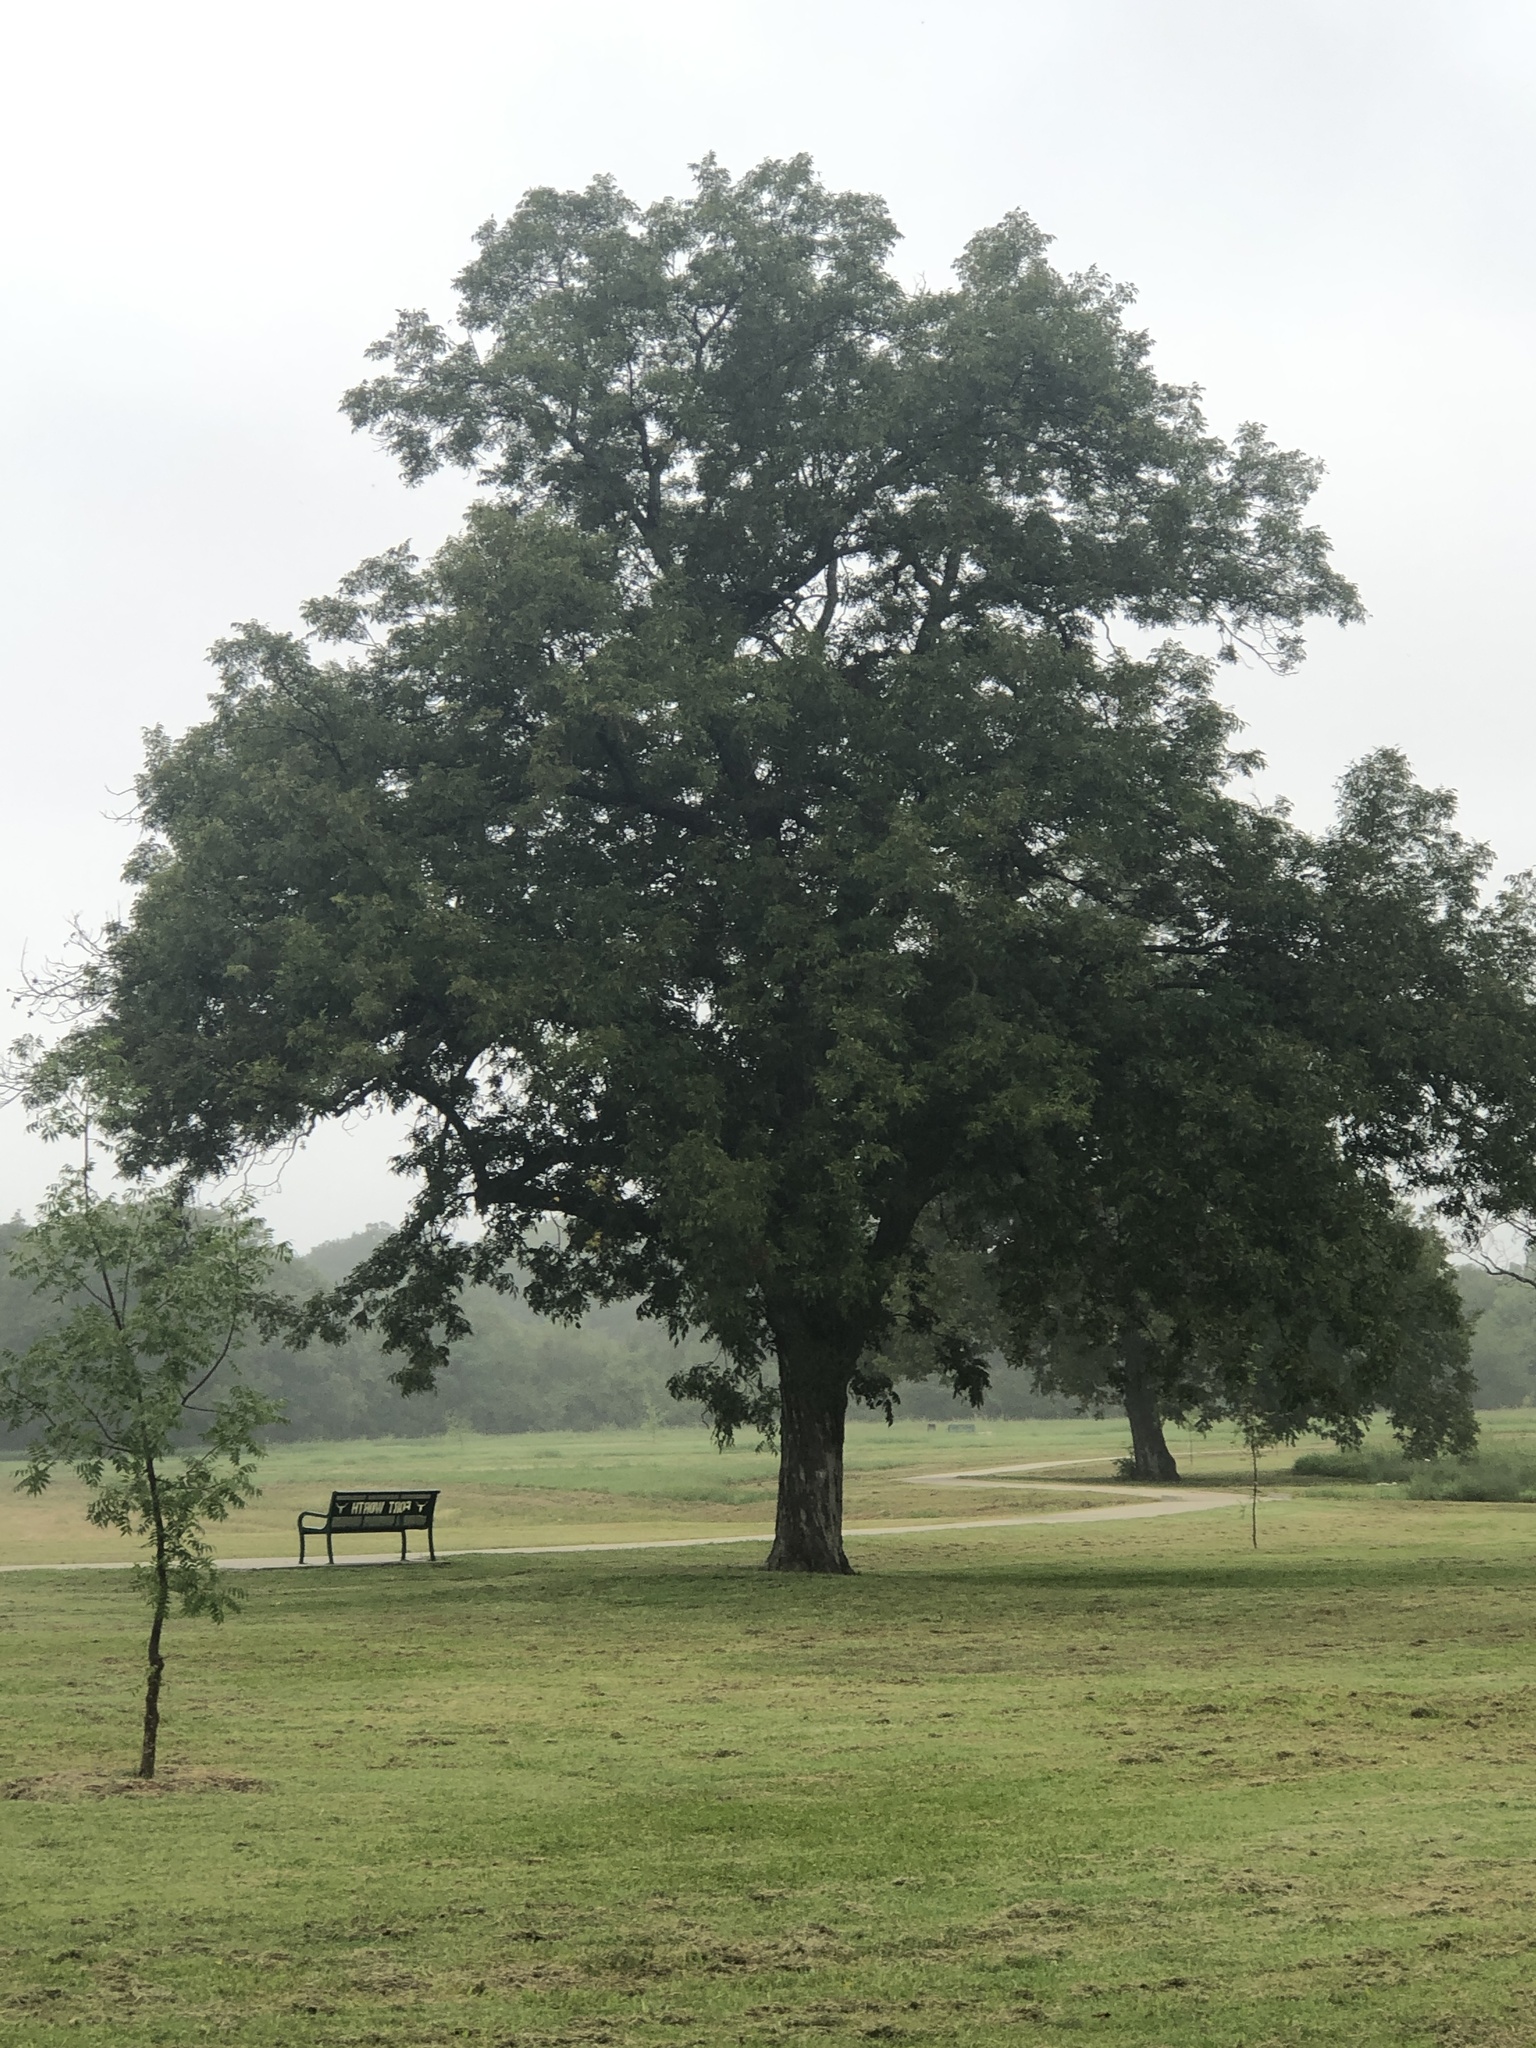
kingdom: Plantae
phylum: Tracheophyta
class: Magnoliopsida
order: Fagales
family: Juglandaceae
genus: Carya
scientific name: Carya illinoinensis
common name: Pecan
